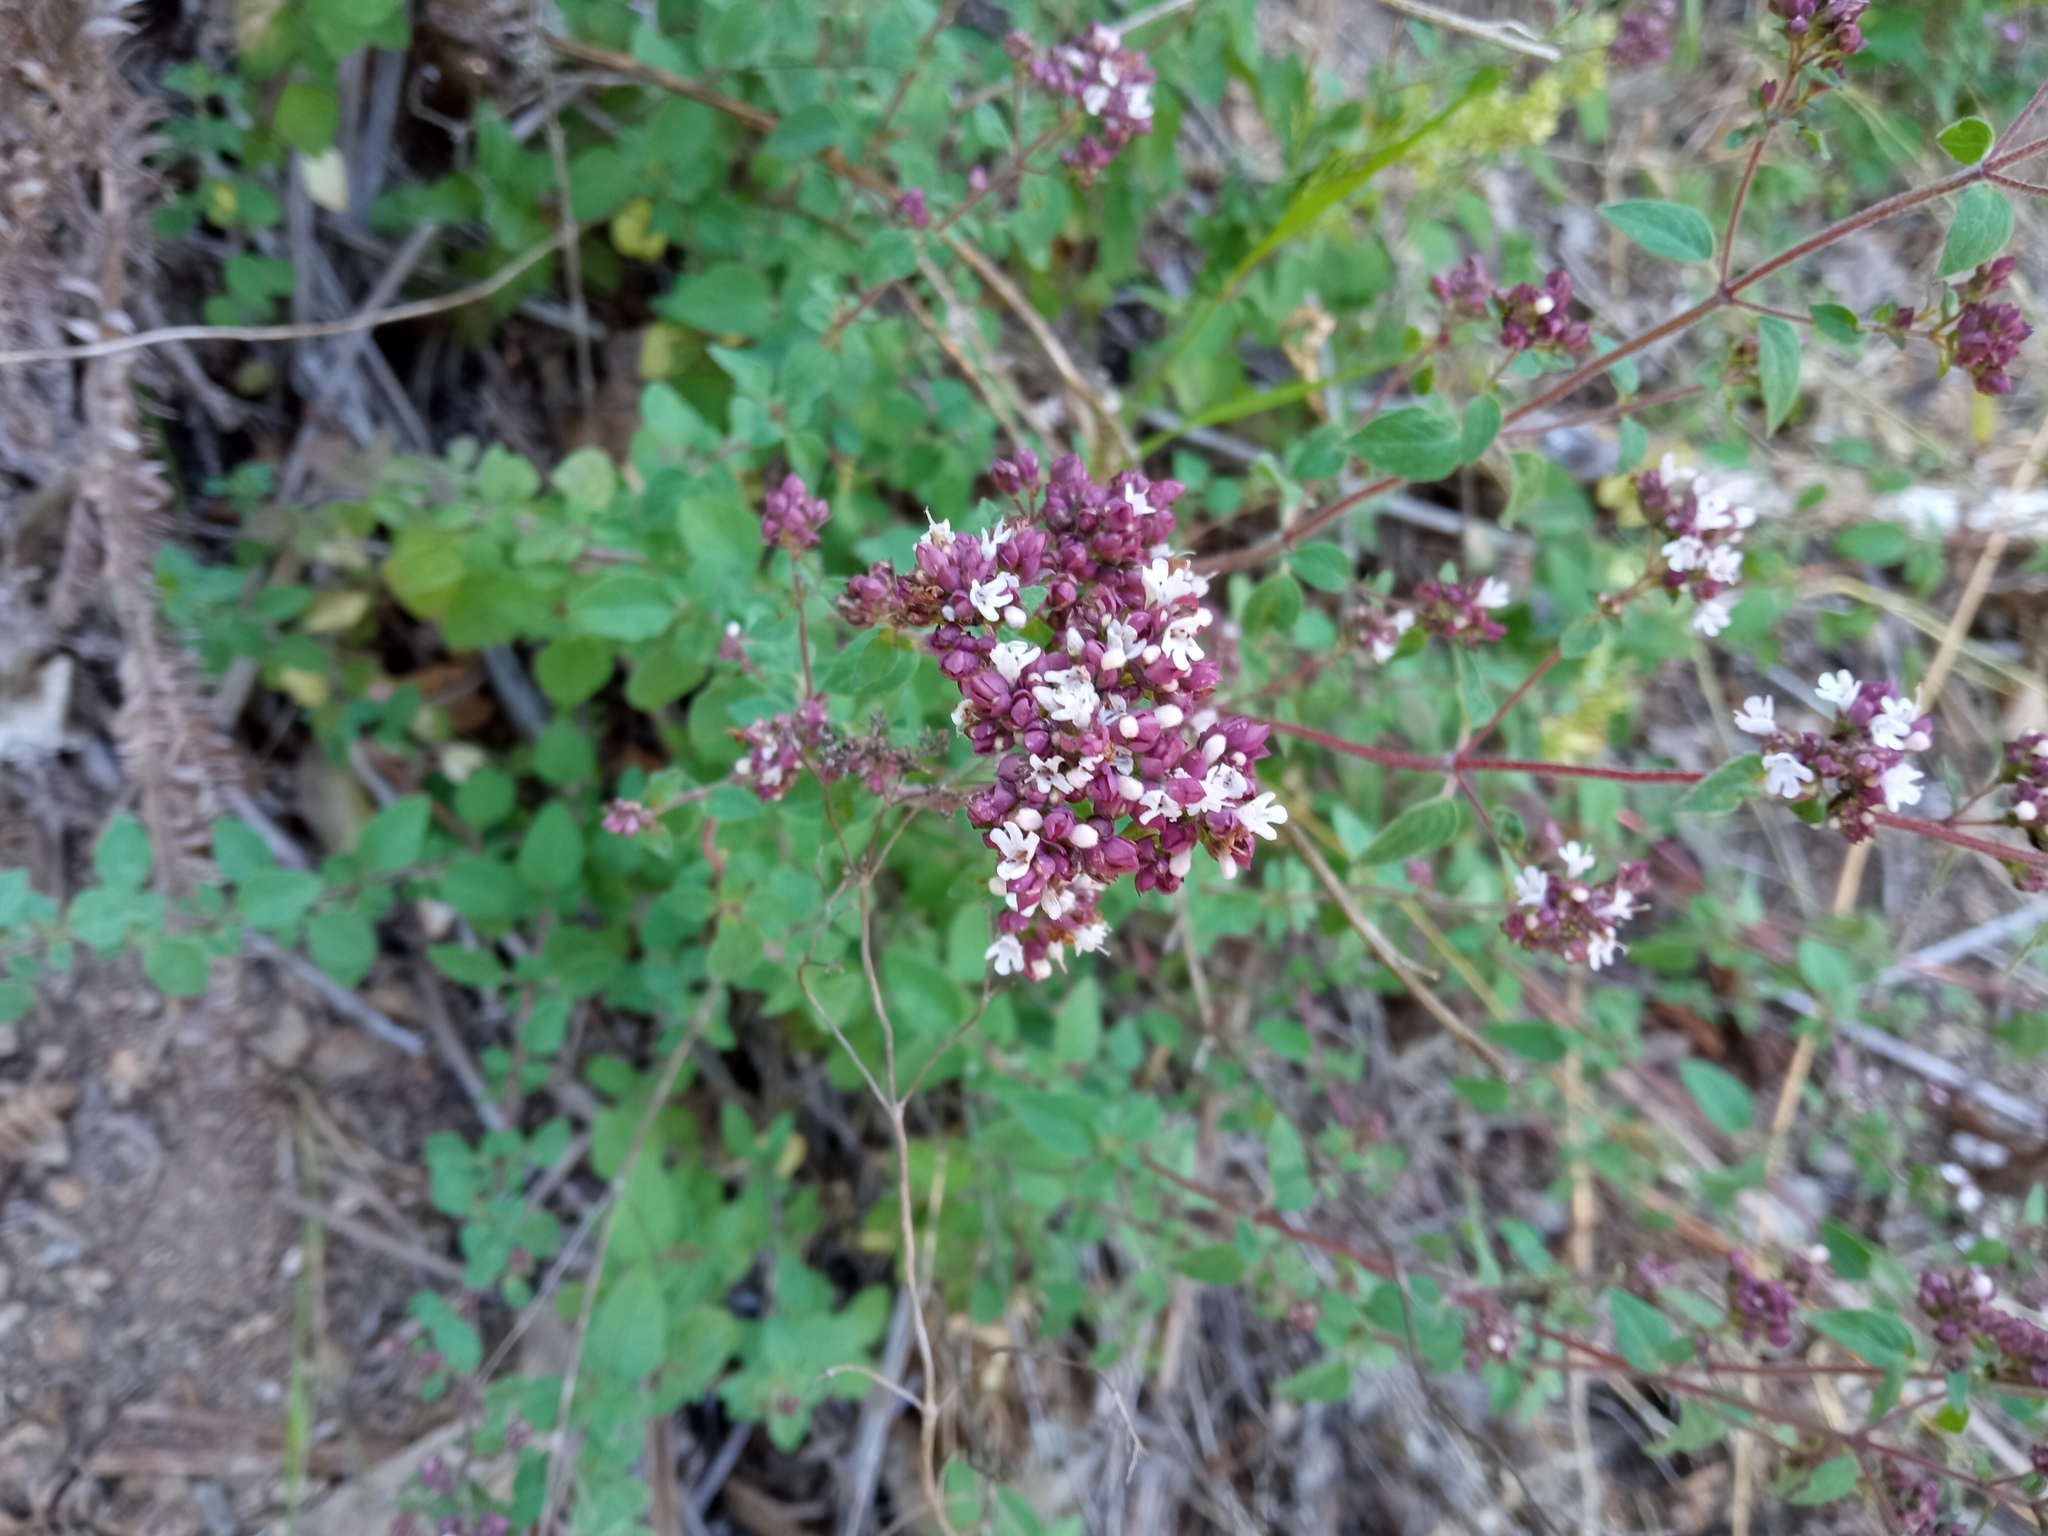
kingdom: Plantae
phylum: Tracheophyta
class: Magnoliopsida
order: Lamiales
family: Lamiaceae
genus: Origanum
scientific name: Origanum vulgare
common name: Wild marjoram
